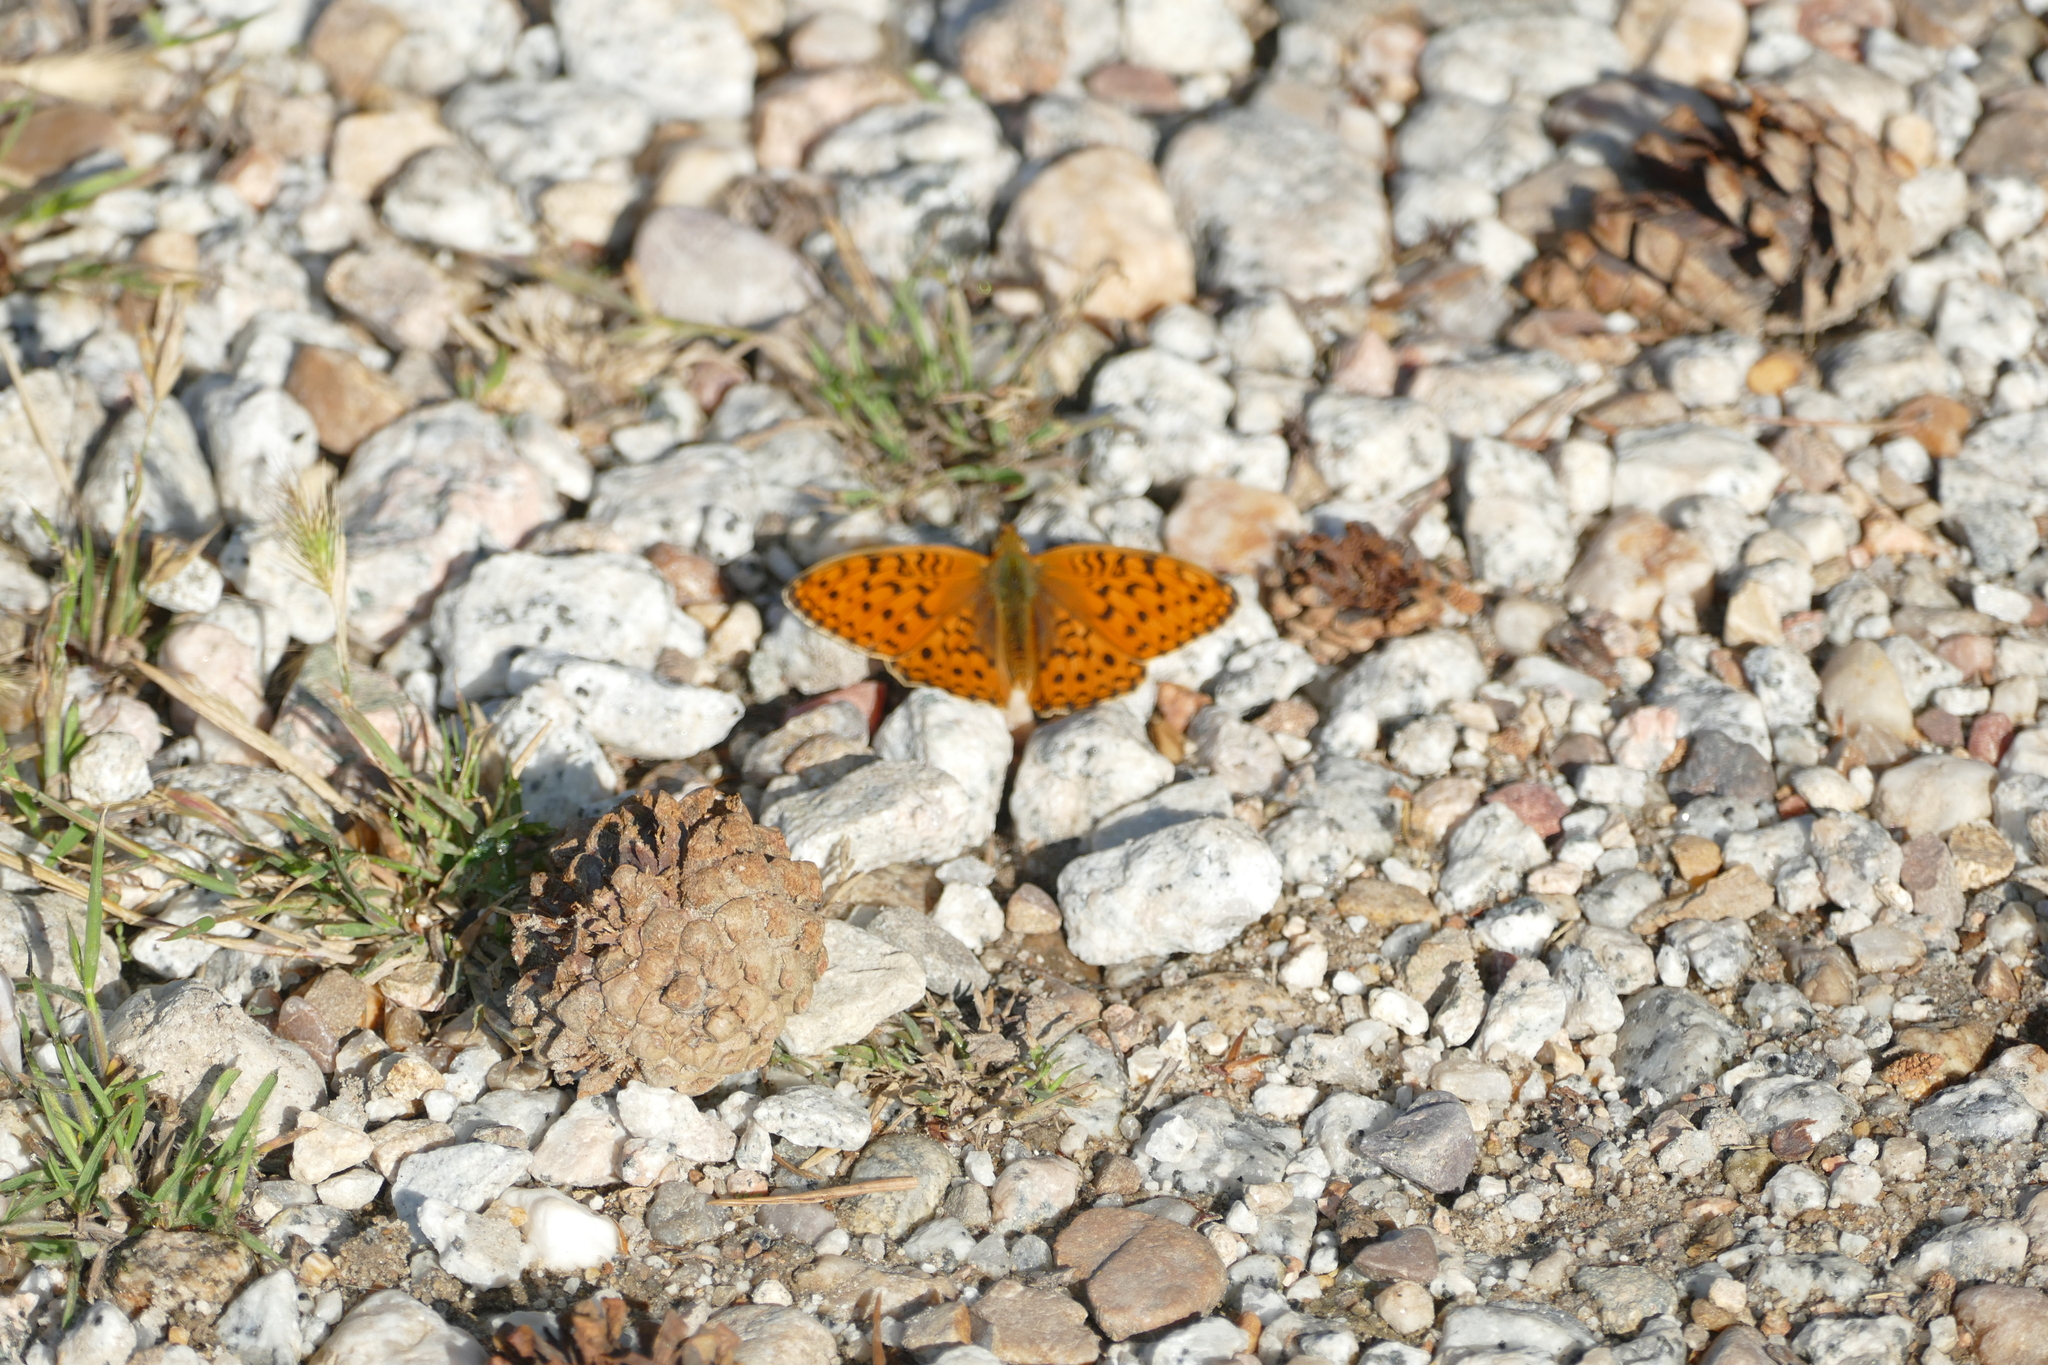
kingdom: Animalia
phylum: Arthropoda
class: Insecta
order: Lepidoptera
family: Nymphalidae
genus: Fabriciana
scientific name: Fabriciana niobe
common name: Niobe fritillary
